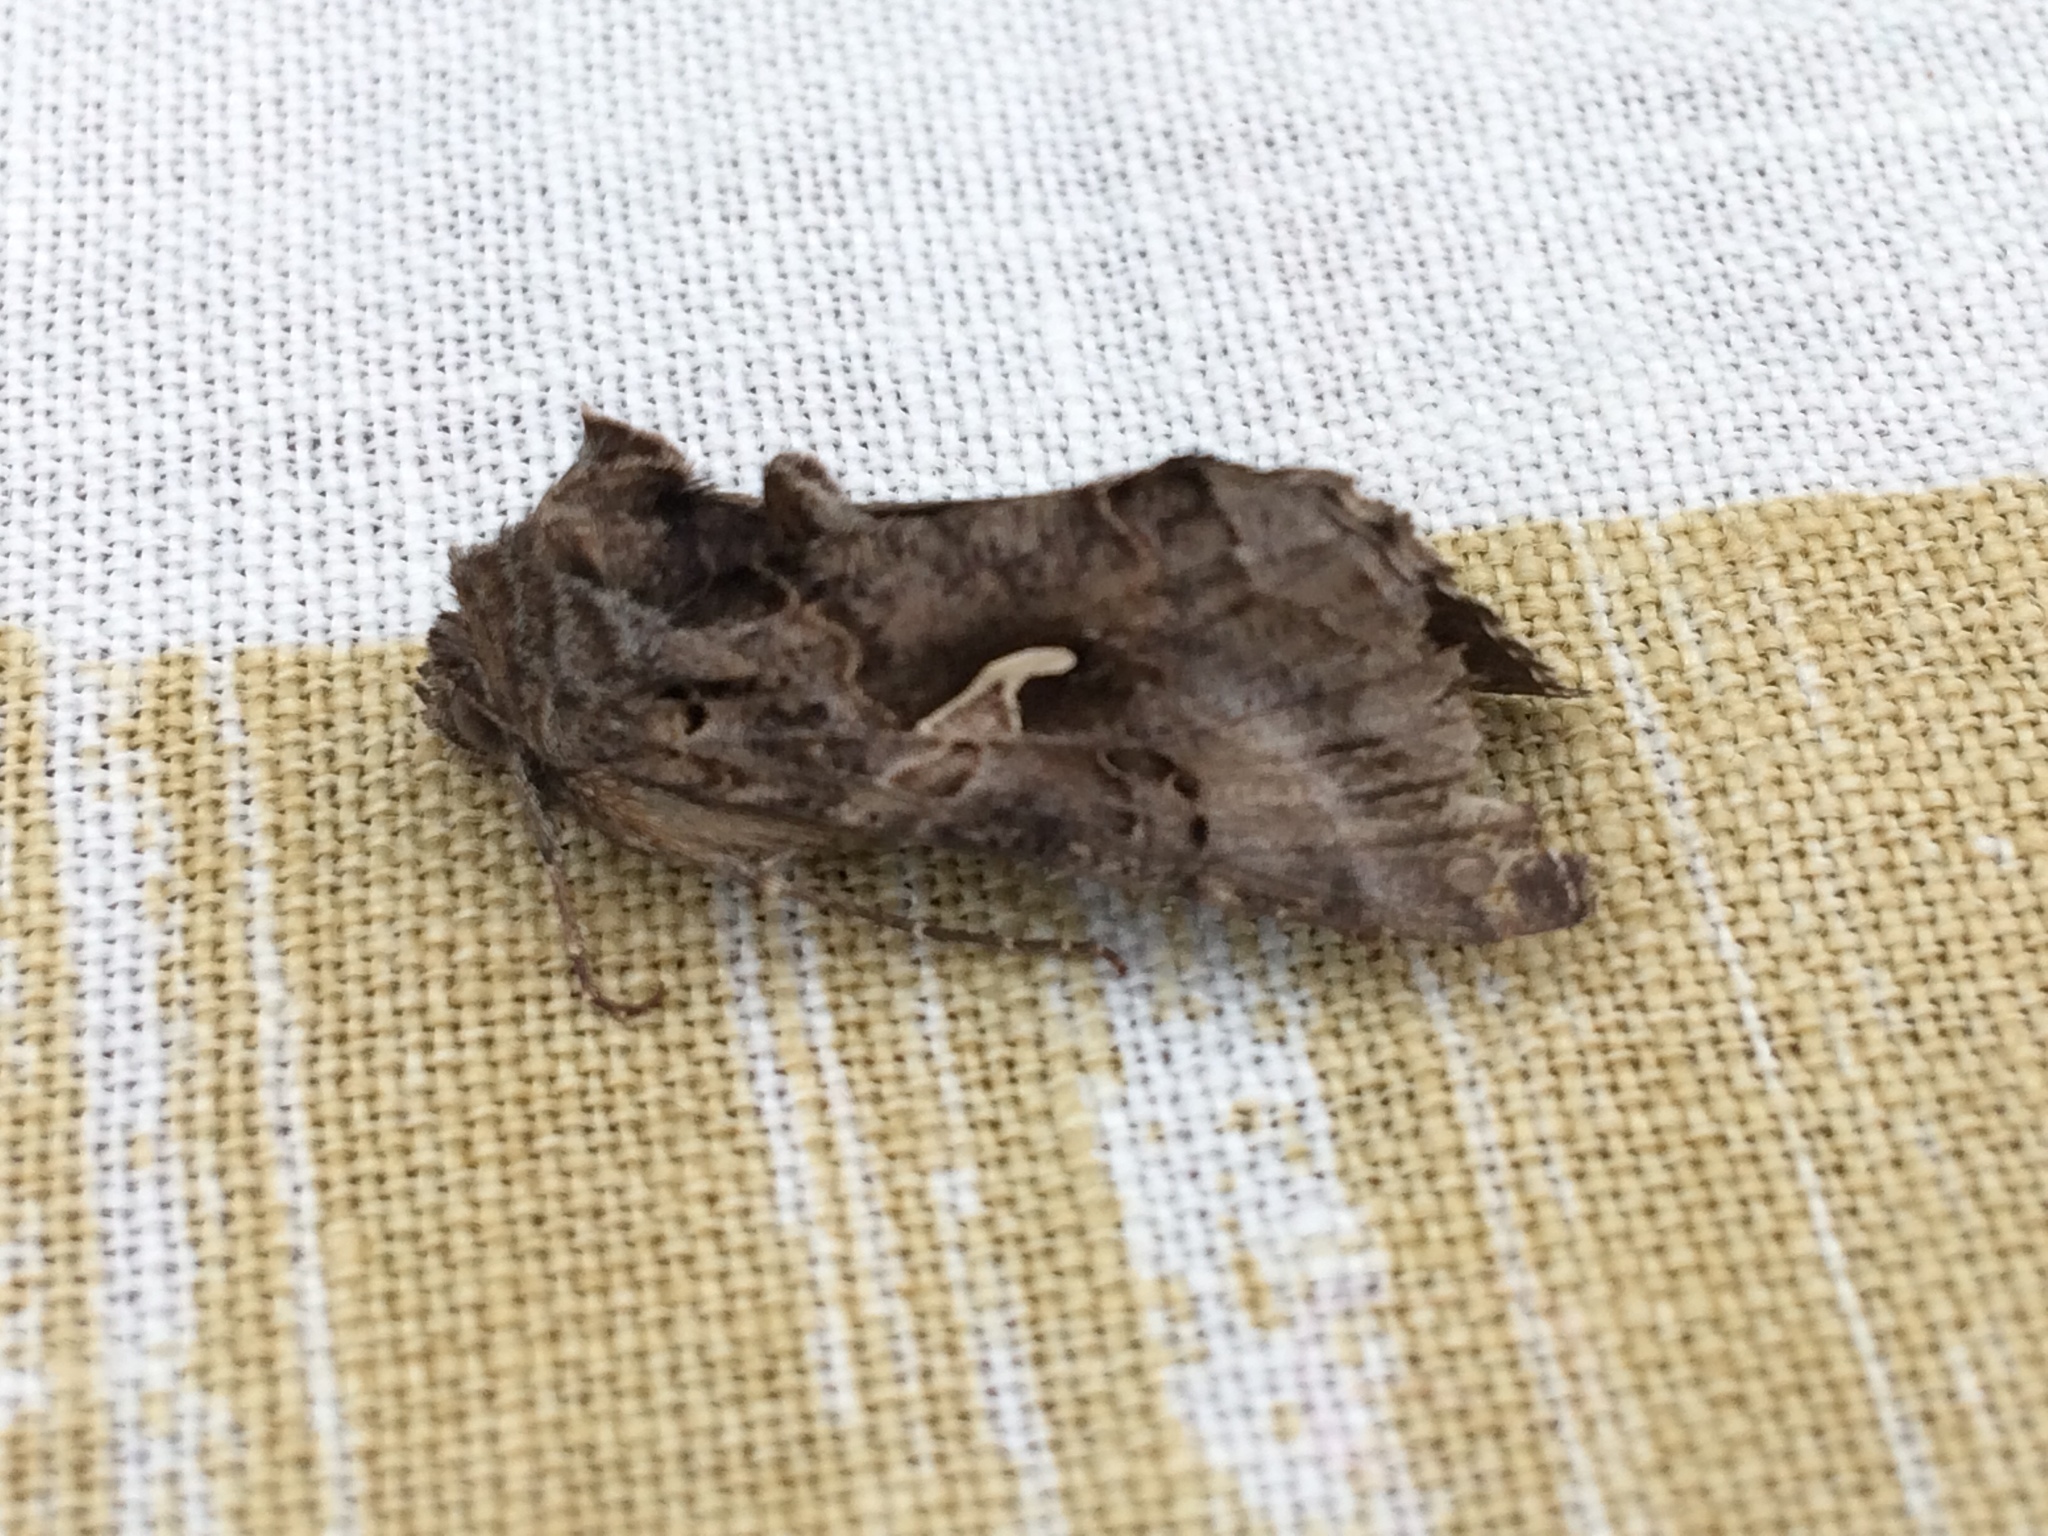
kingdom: Animalia
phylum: Arthropoda
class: Insecta
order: Lepidoptera
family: Noctuidae
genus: Autographa
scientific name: Autographa gamma
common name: Silver y
